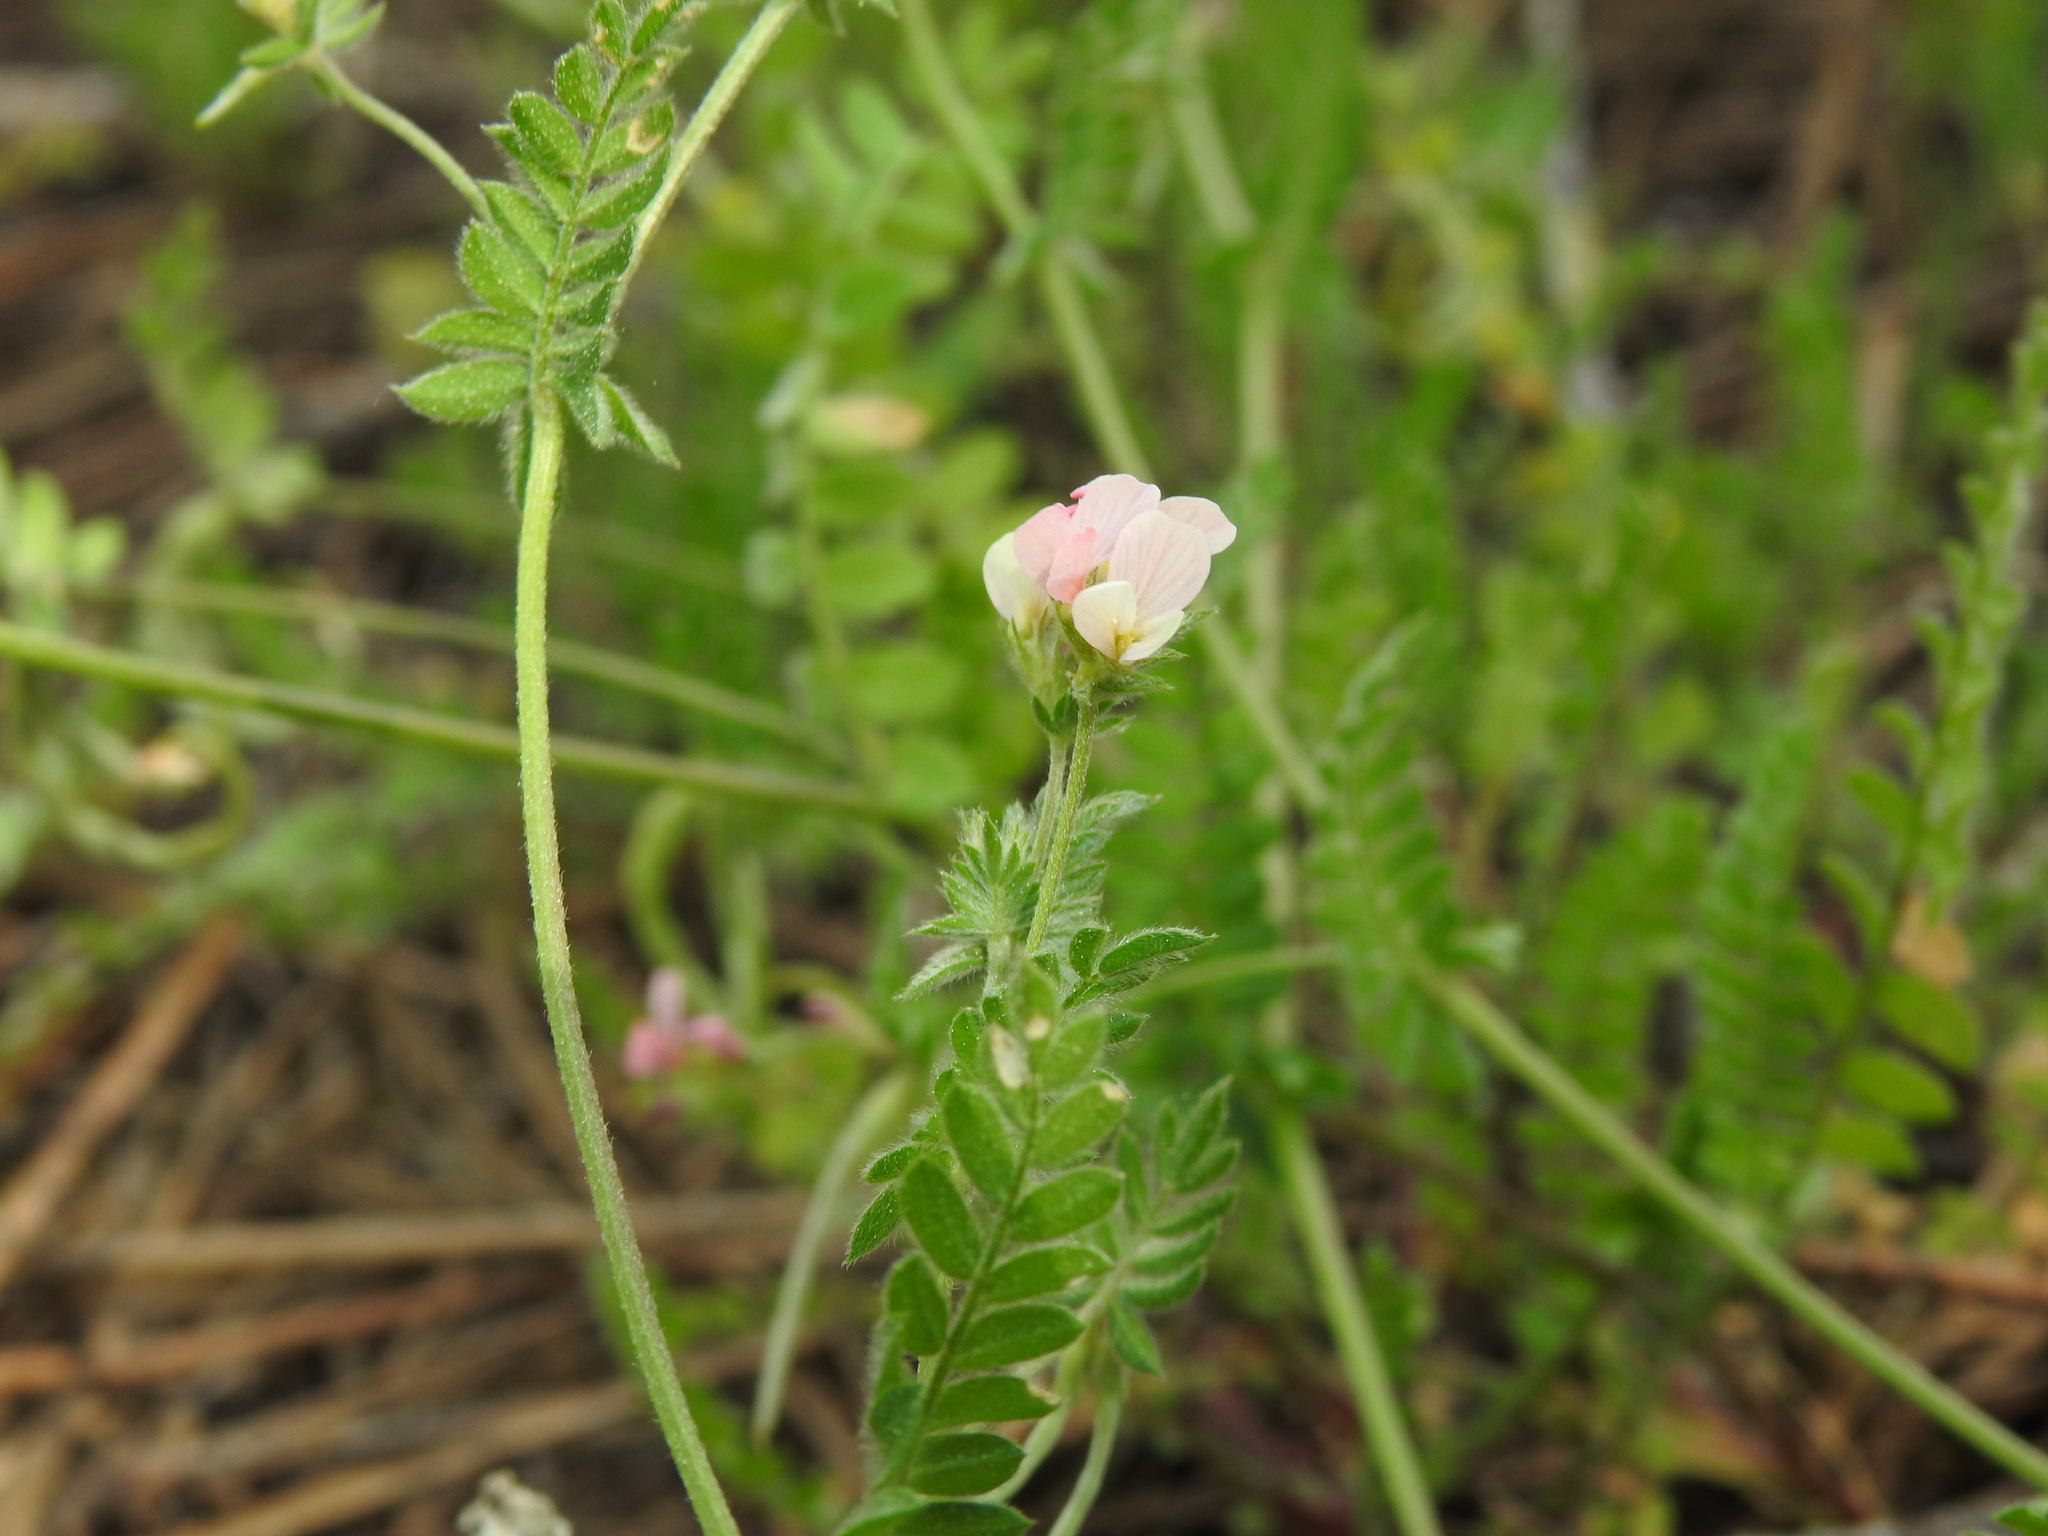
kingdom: Plantae
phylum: Tracheophyta
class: Magnoliopsida
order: Fabales
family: Fabaceae
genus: Ornithopus
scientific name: Ornithopus sativus
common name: Serradella
